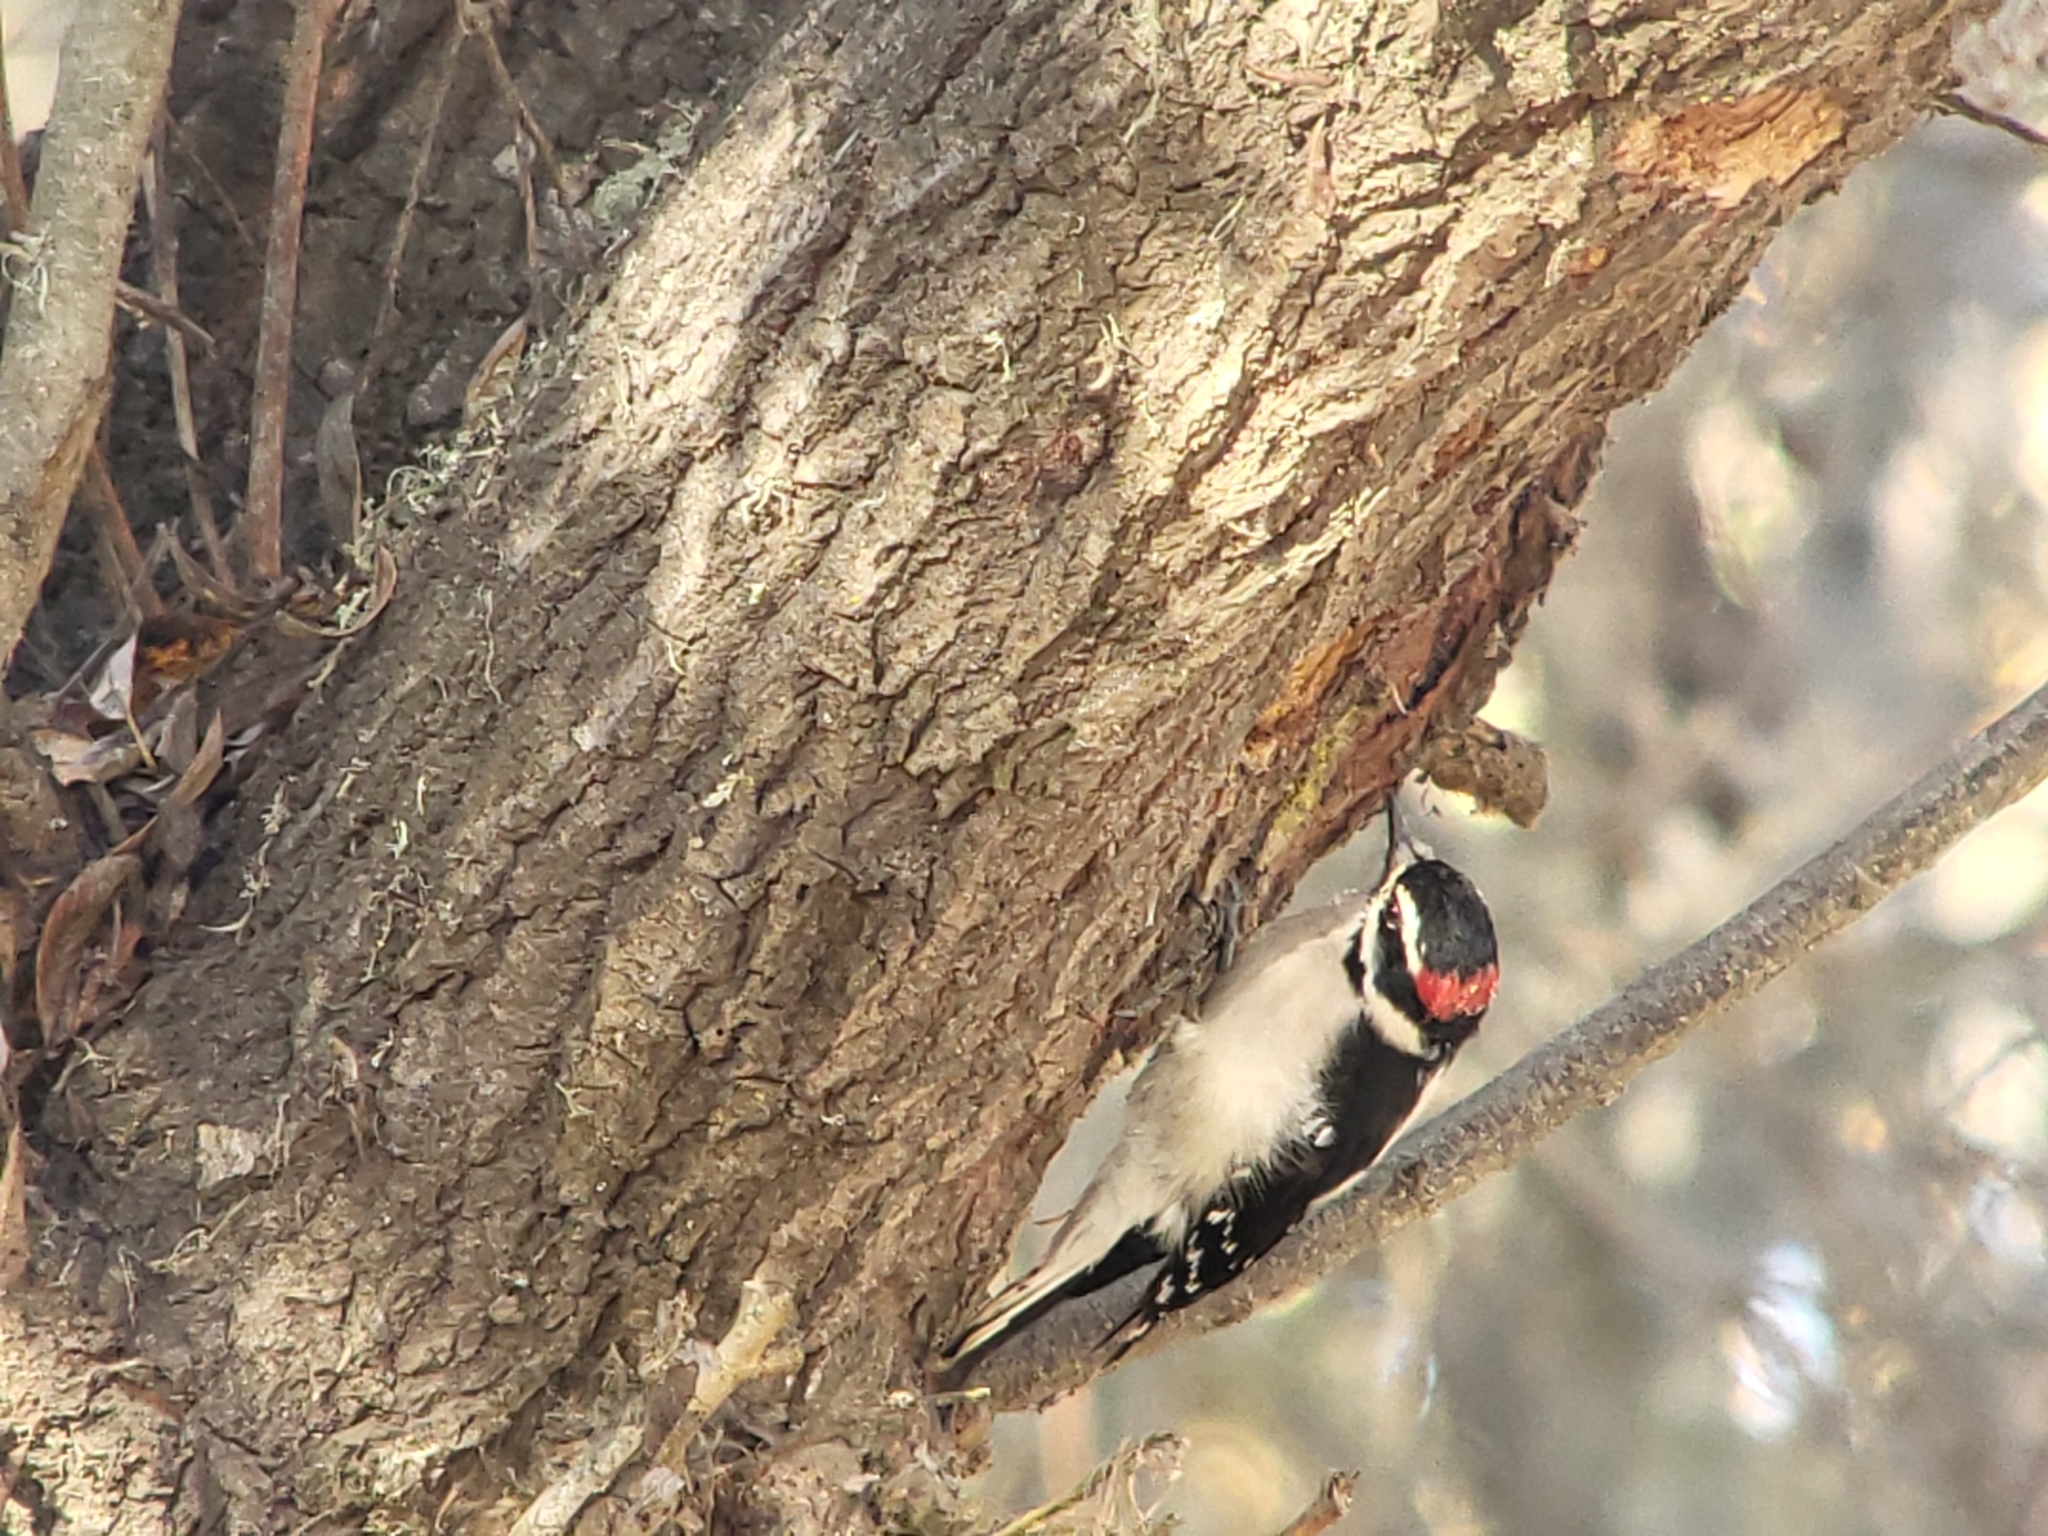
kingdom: Animalia
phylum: Chordata
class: Aves
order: Piciformes
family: Picidae
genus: Dryobates
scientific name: Dryobates pubescens
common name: Downy woodpecker
